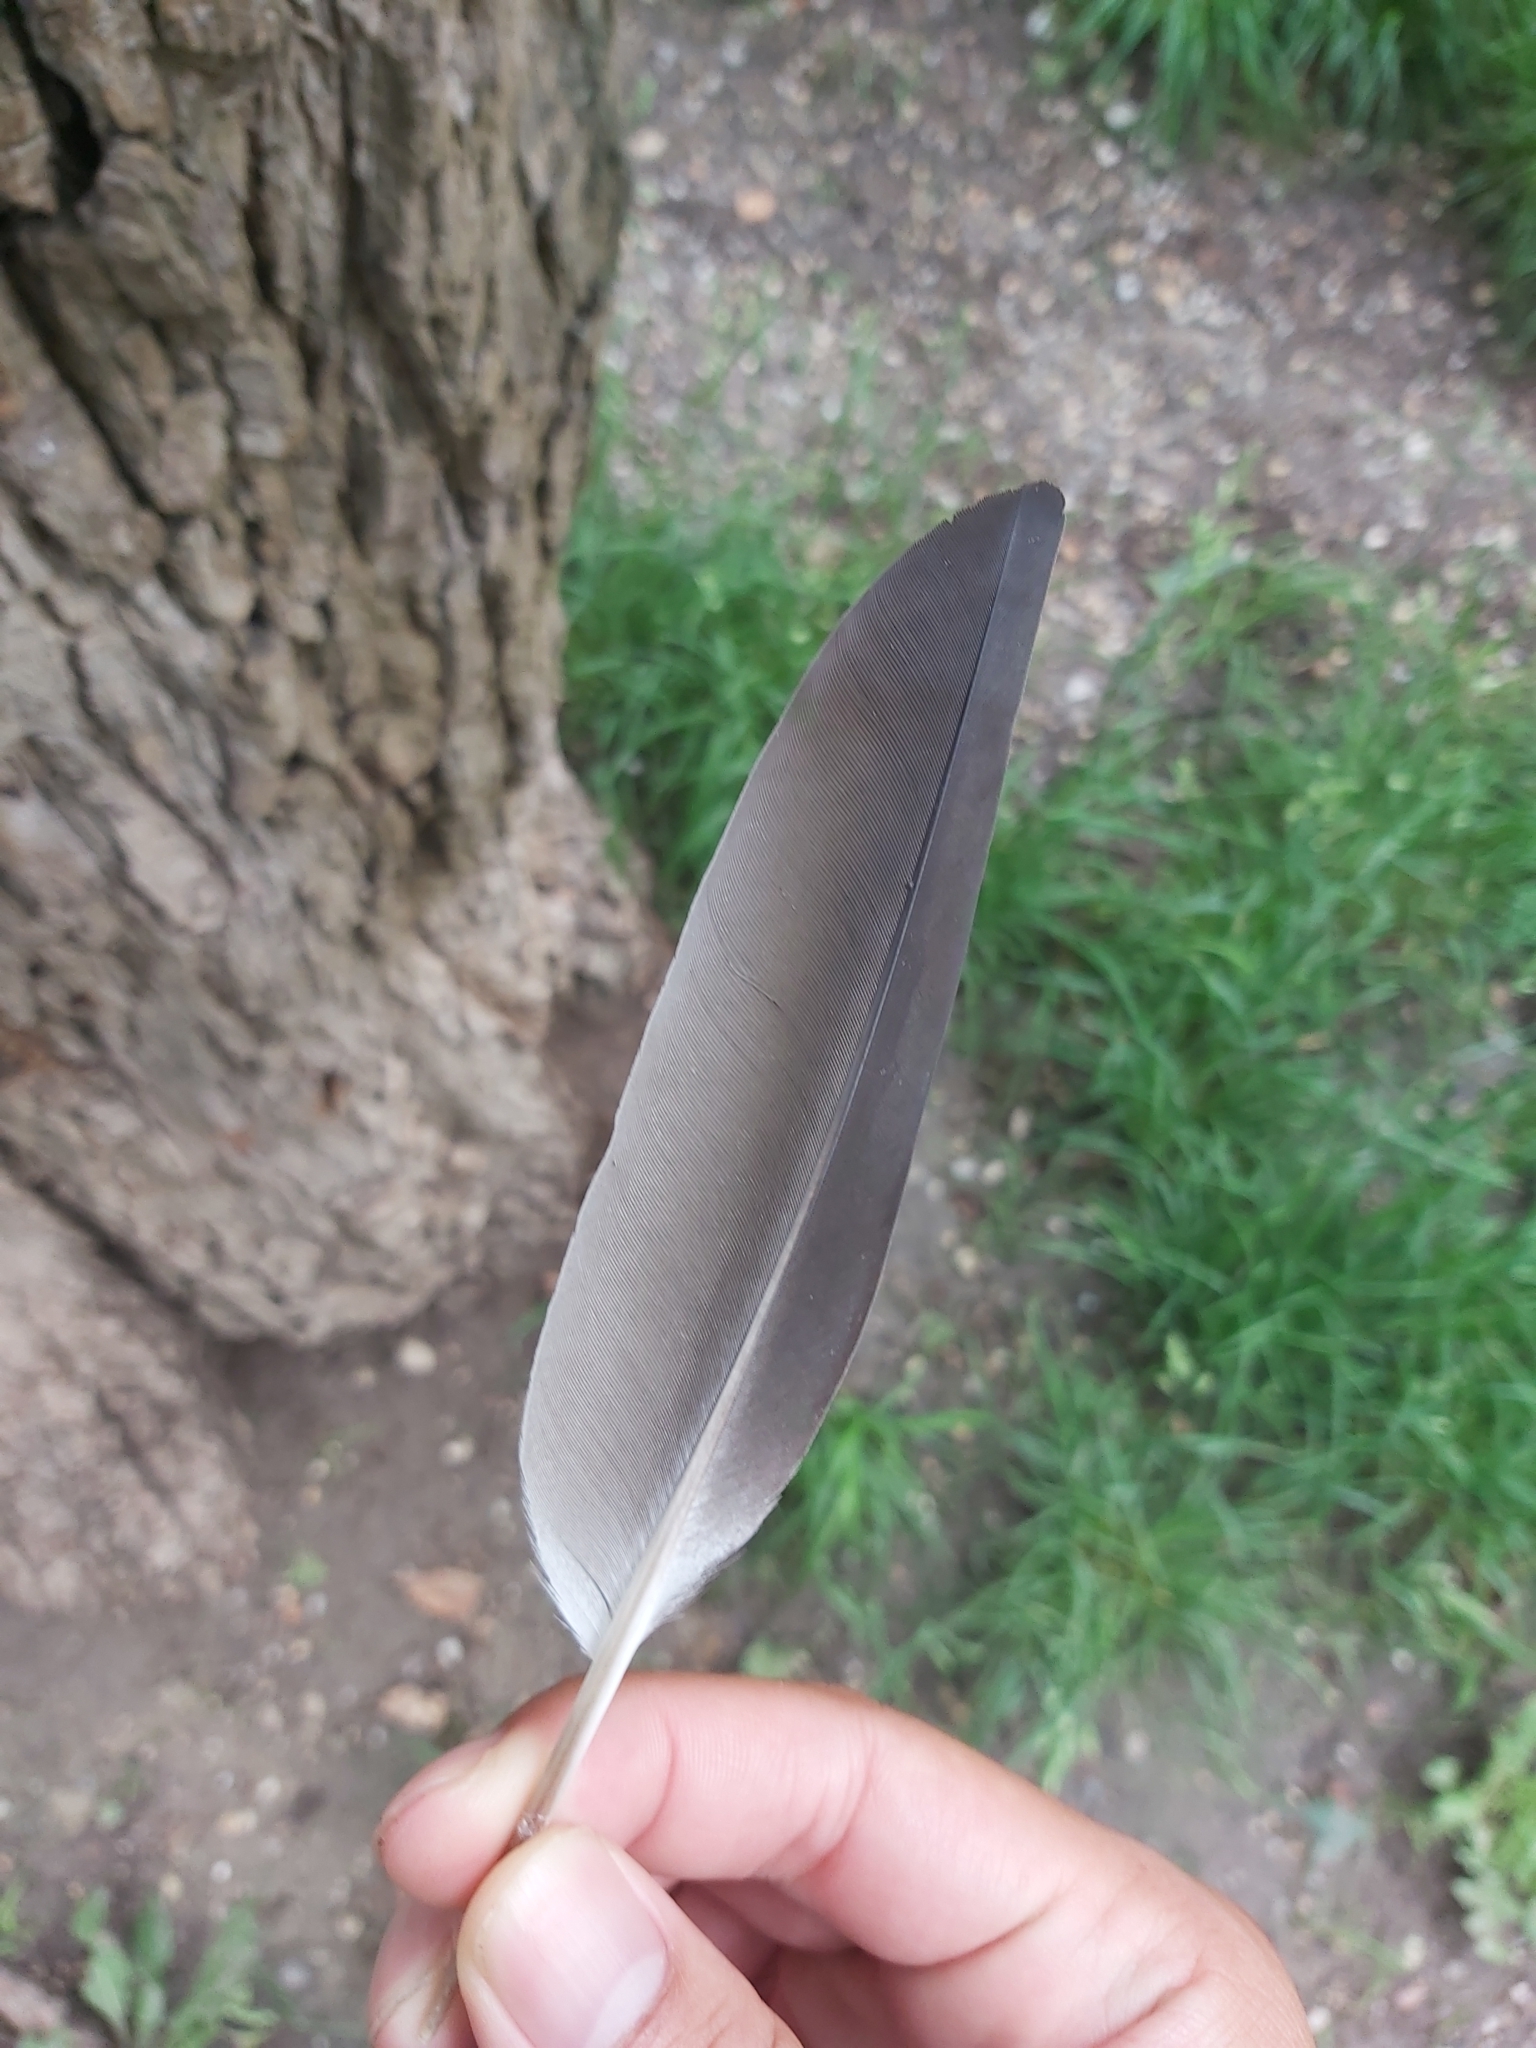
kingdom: Animalia
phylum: Chordata
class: Aves
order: Columbiformes
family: Columbidae
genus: Columba
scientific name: Columba livia
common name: Rock pigeon
